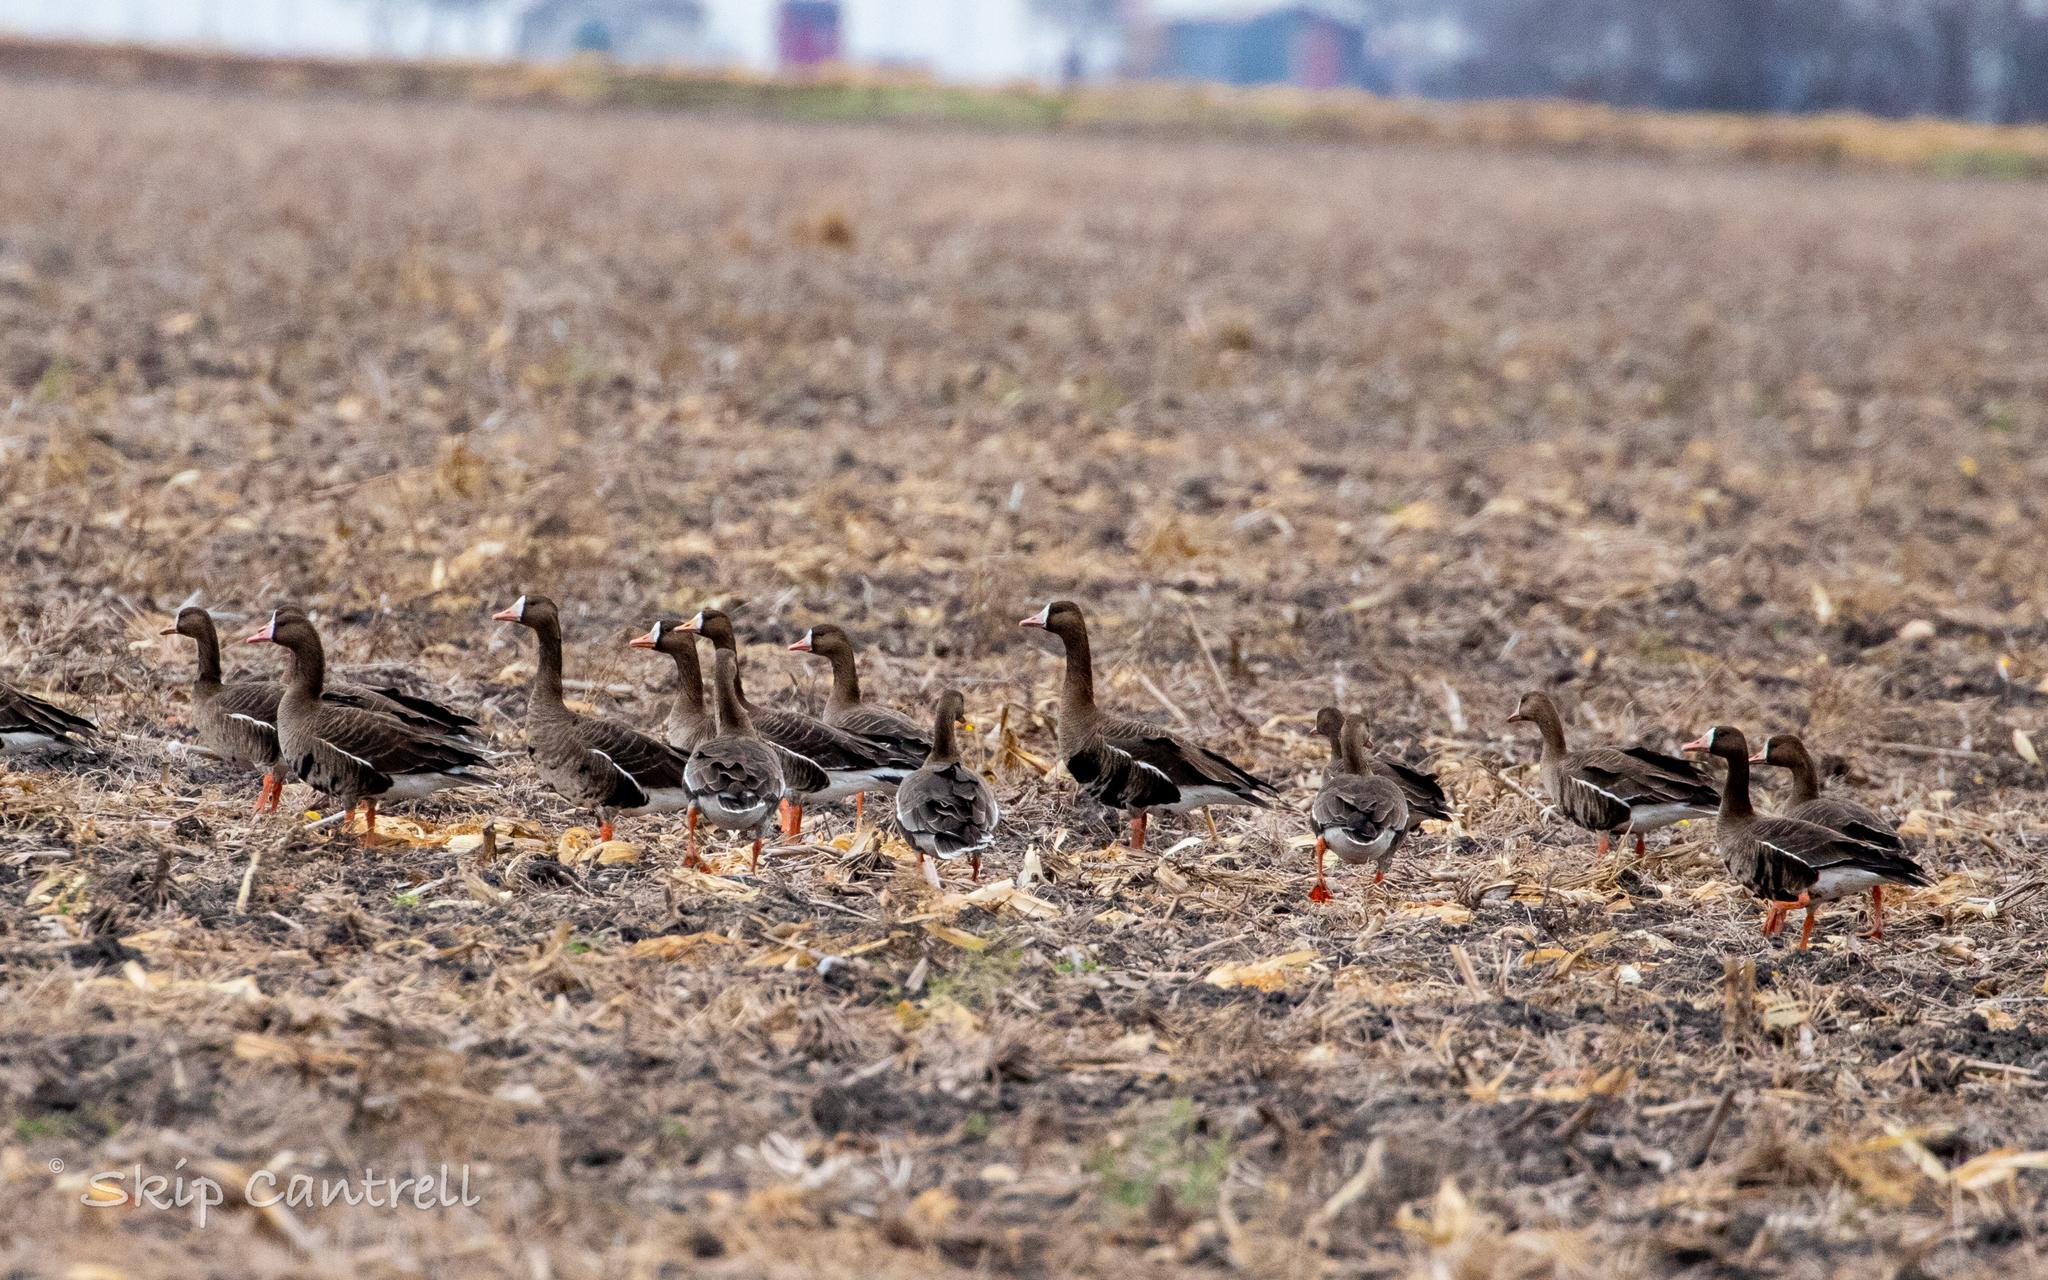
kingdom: Animalia
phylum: Chordata
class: Aves
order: Anseriformes
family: Anatidae
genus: Anser
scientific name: Anser albifrons
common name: Greater white-fronted goose
